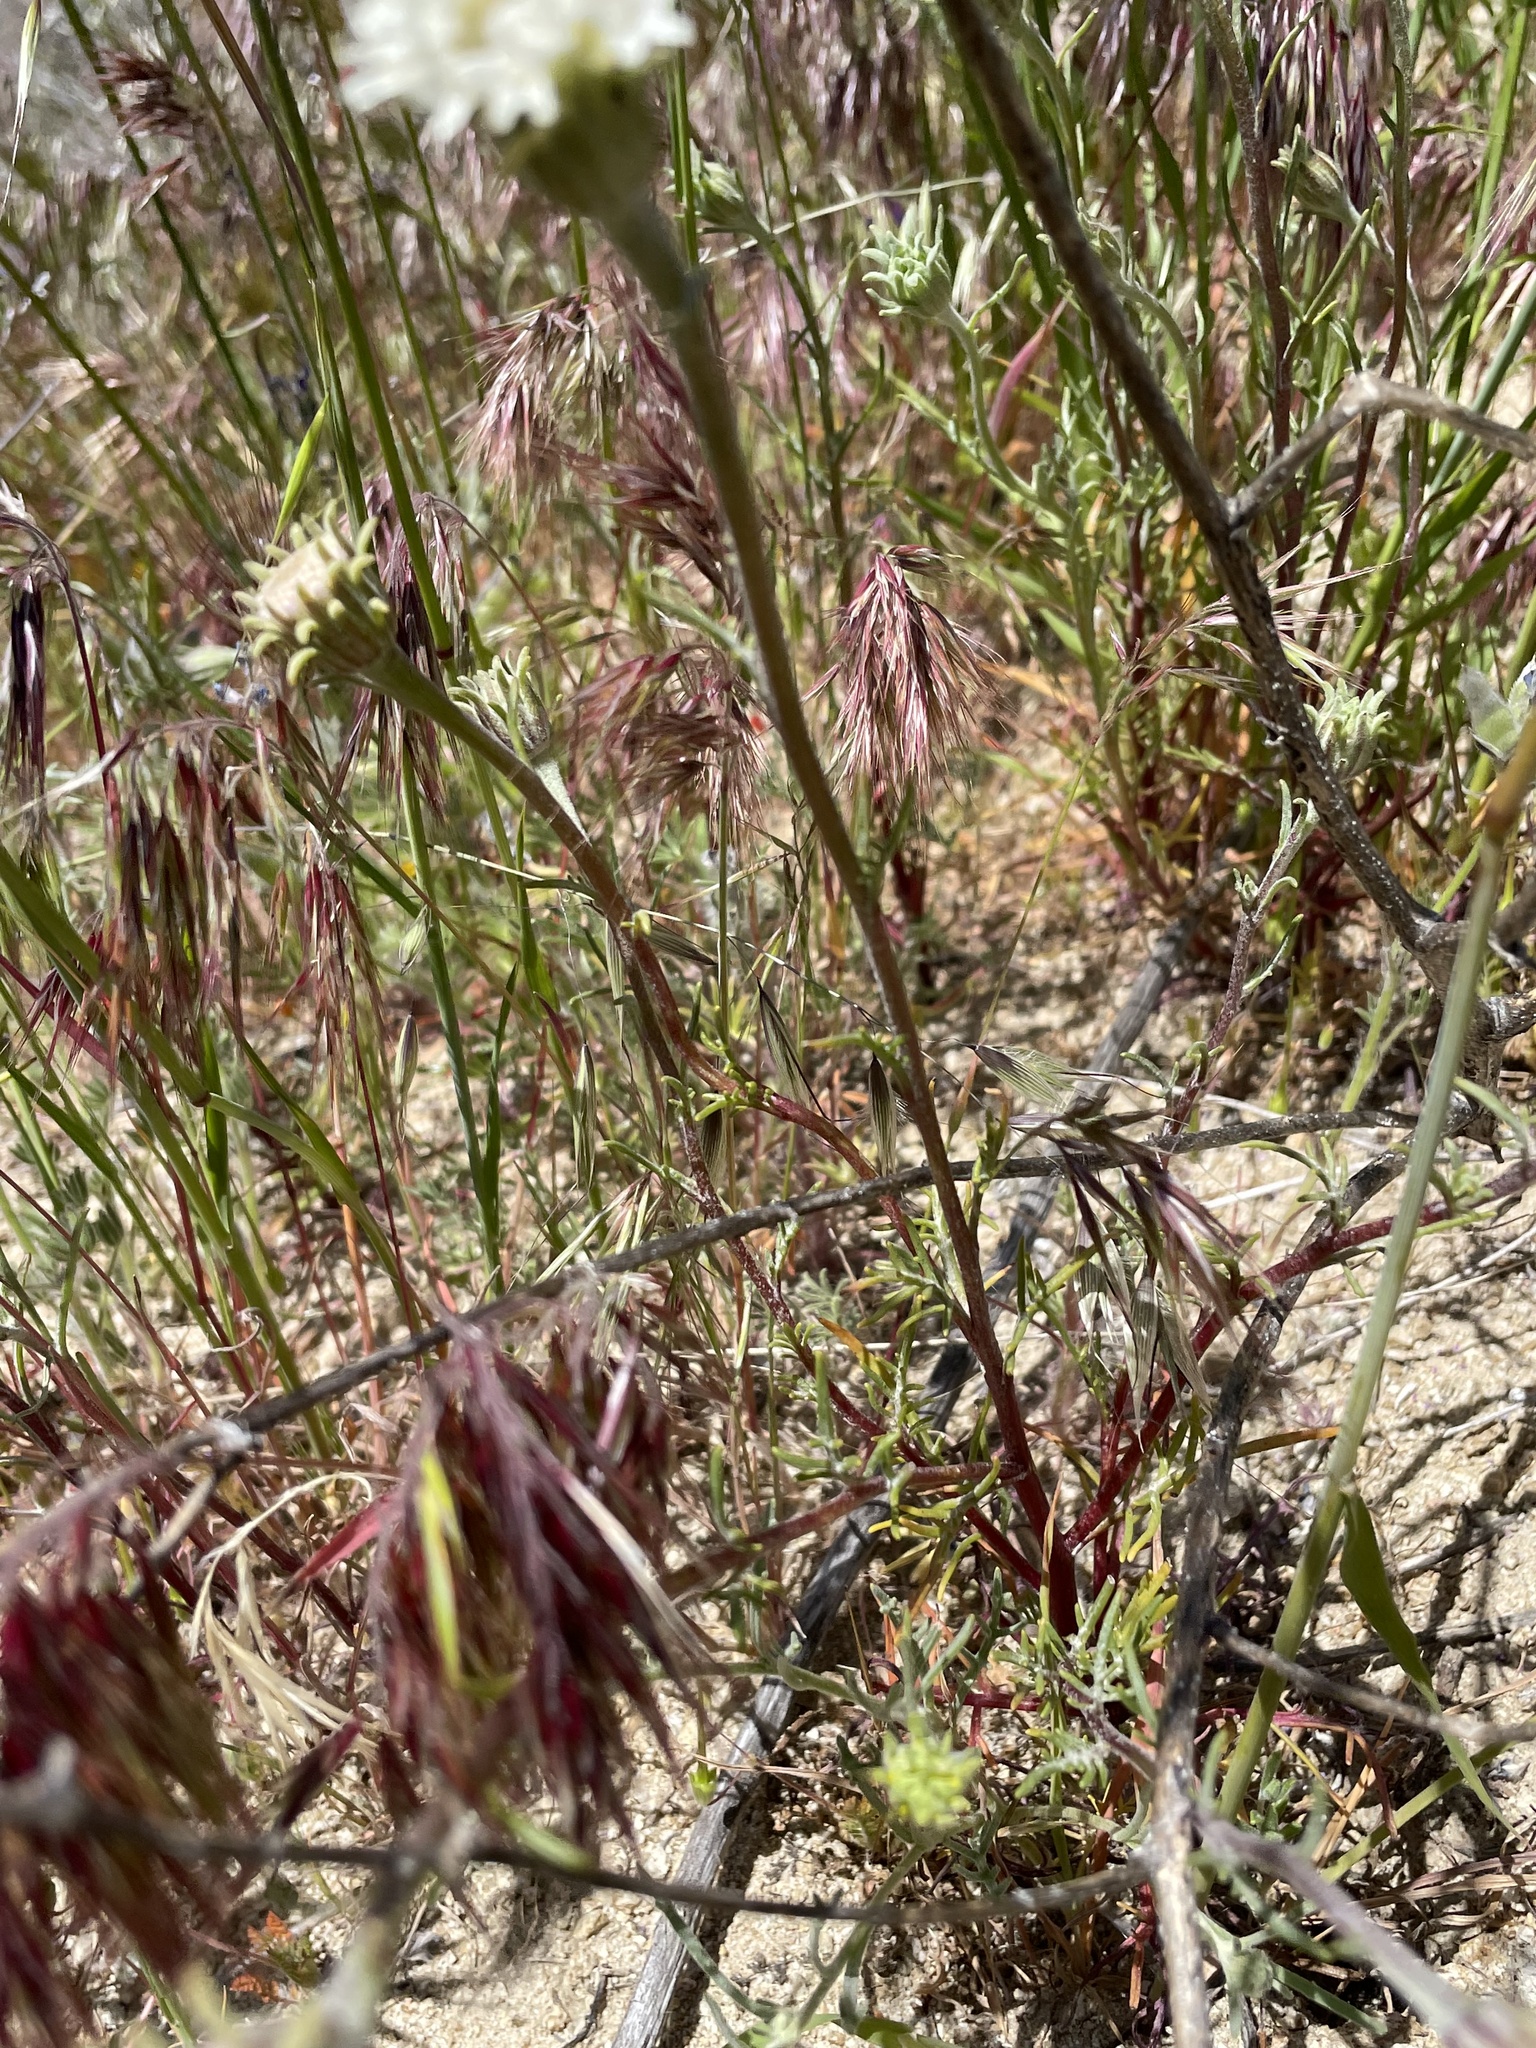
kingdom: Plantae
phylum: Tracheophyta
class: Magnoliopsida
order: Asterales
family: Asteraceae
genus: Chaenactis
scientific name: Chaenactis xantiana
